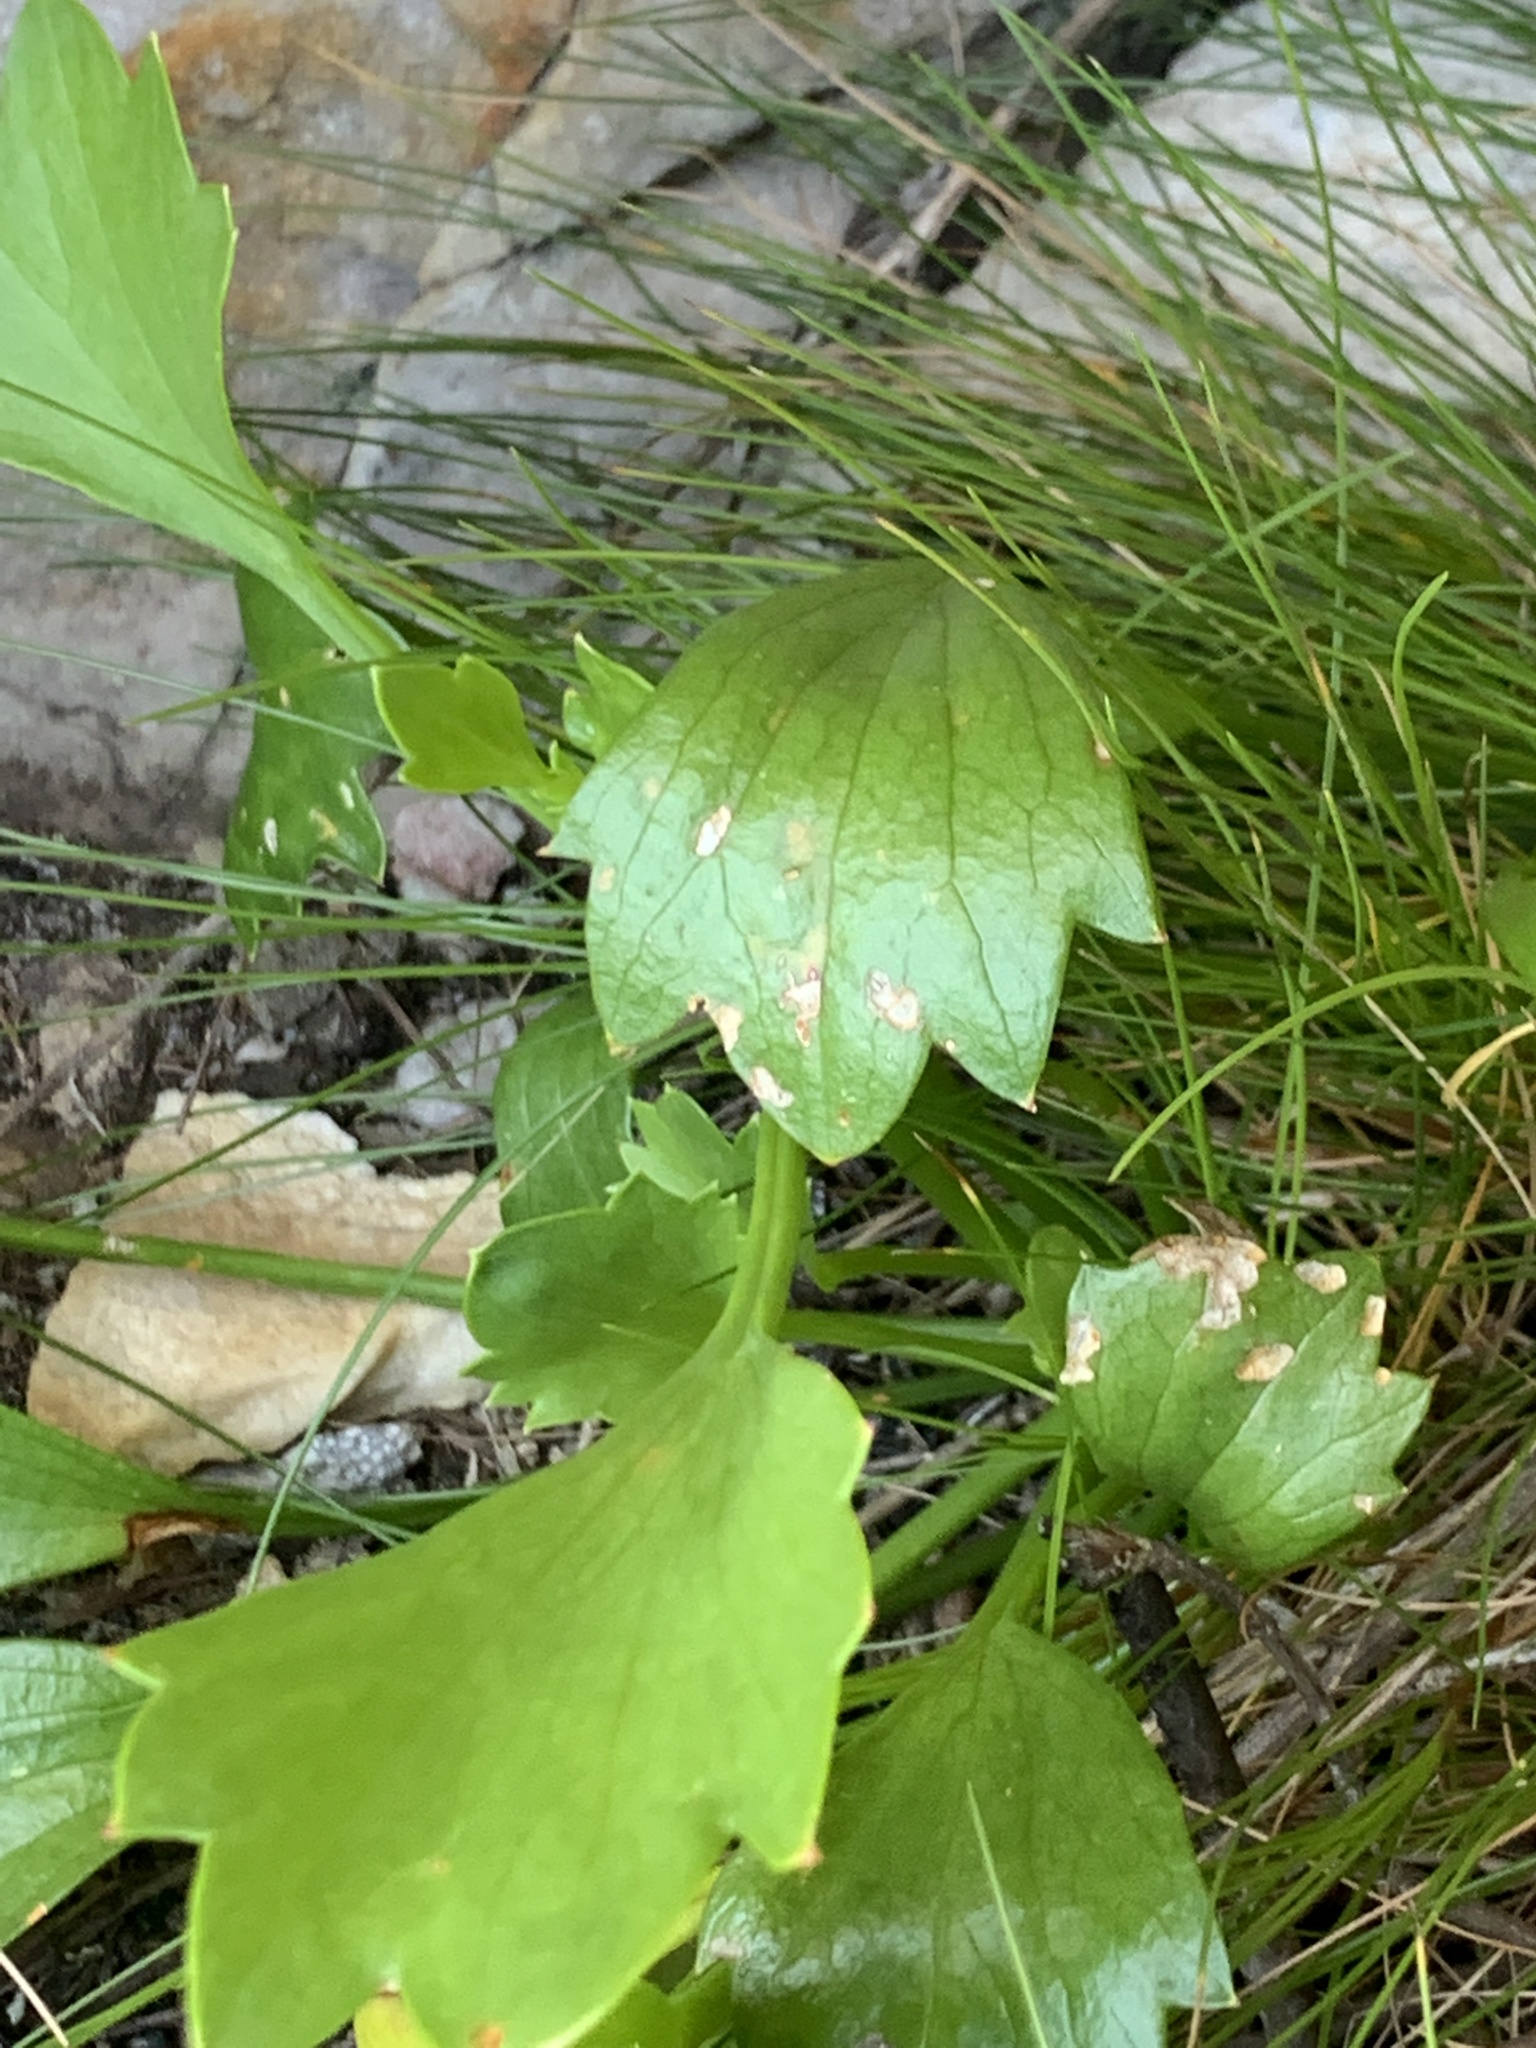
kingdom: Plantae
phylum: Tracheophyta
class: Magnoliopsida
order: Apiales
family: Apiaceae
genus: Centella
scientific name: Centella triloba
